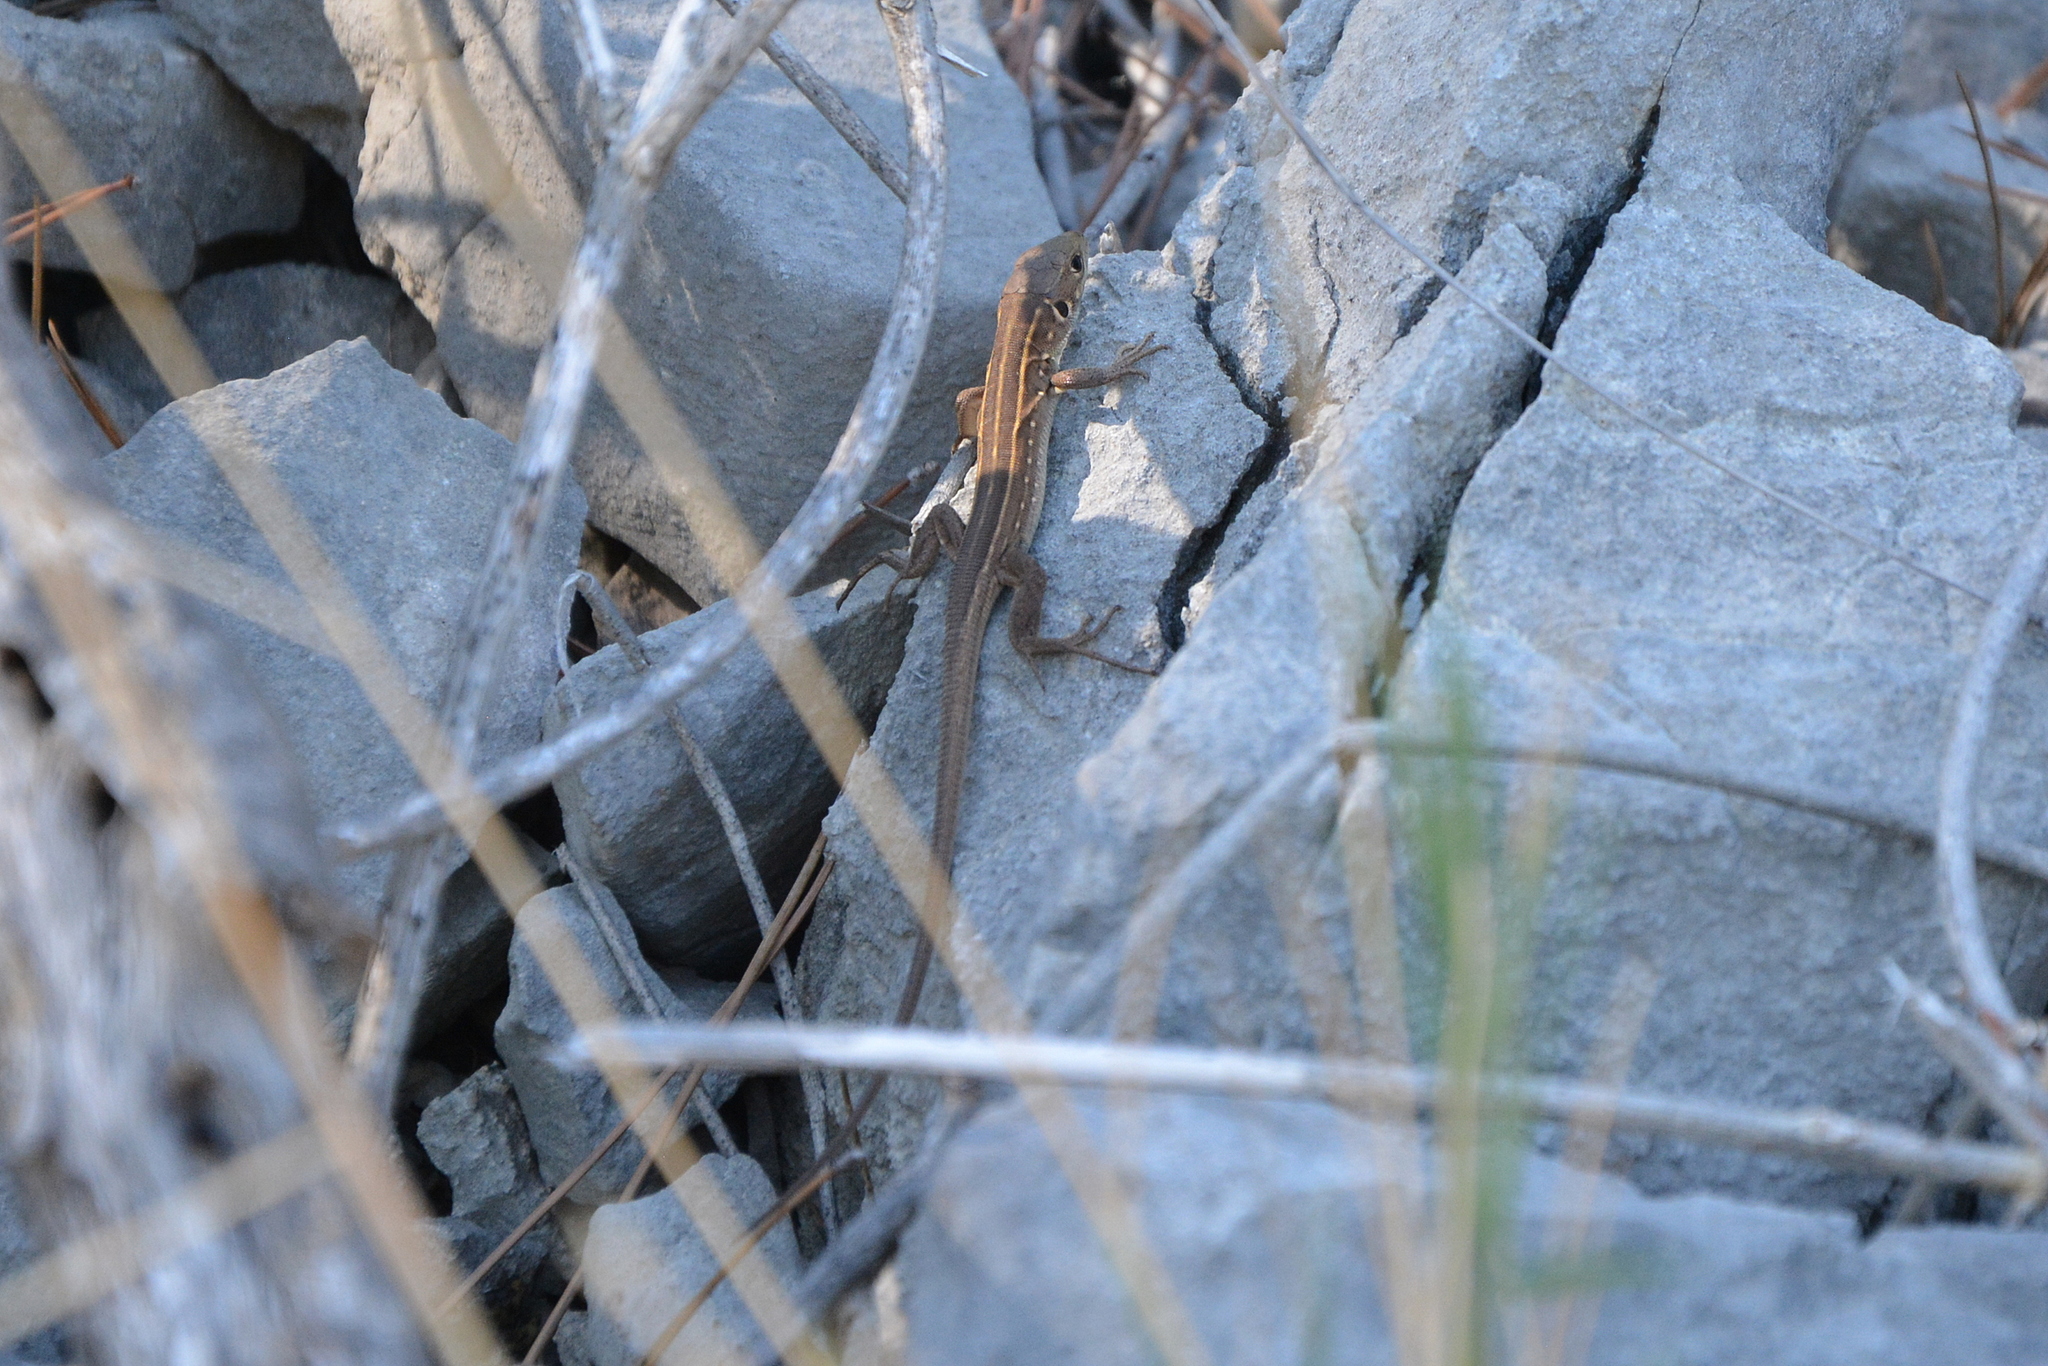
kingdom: Animalia
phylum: Chordata
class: Squamata
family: Lacertidae
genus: Lacerta
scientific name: Lacerta trilineata
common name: Balkan green lizard
